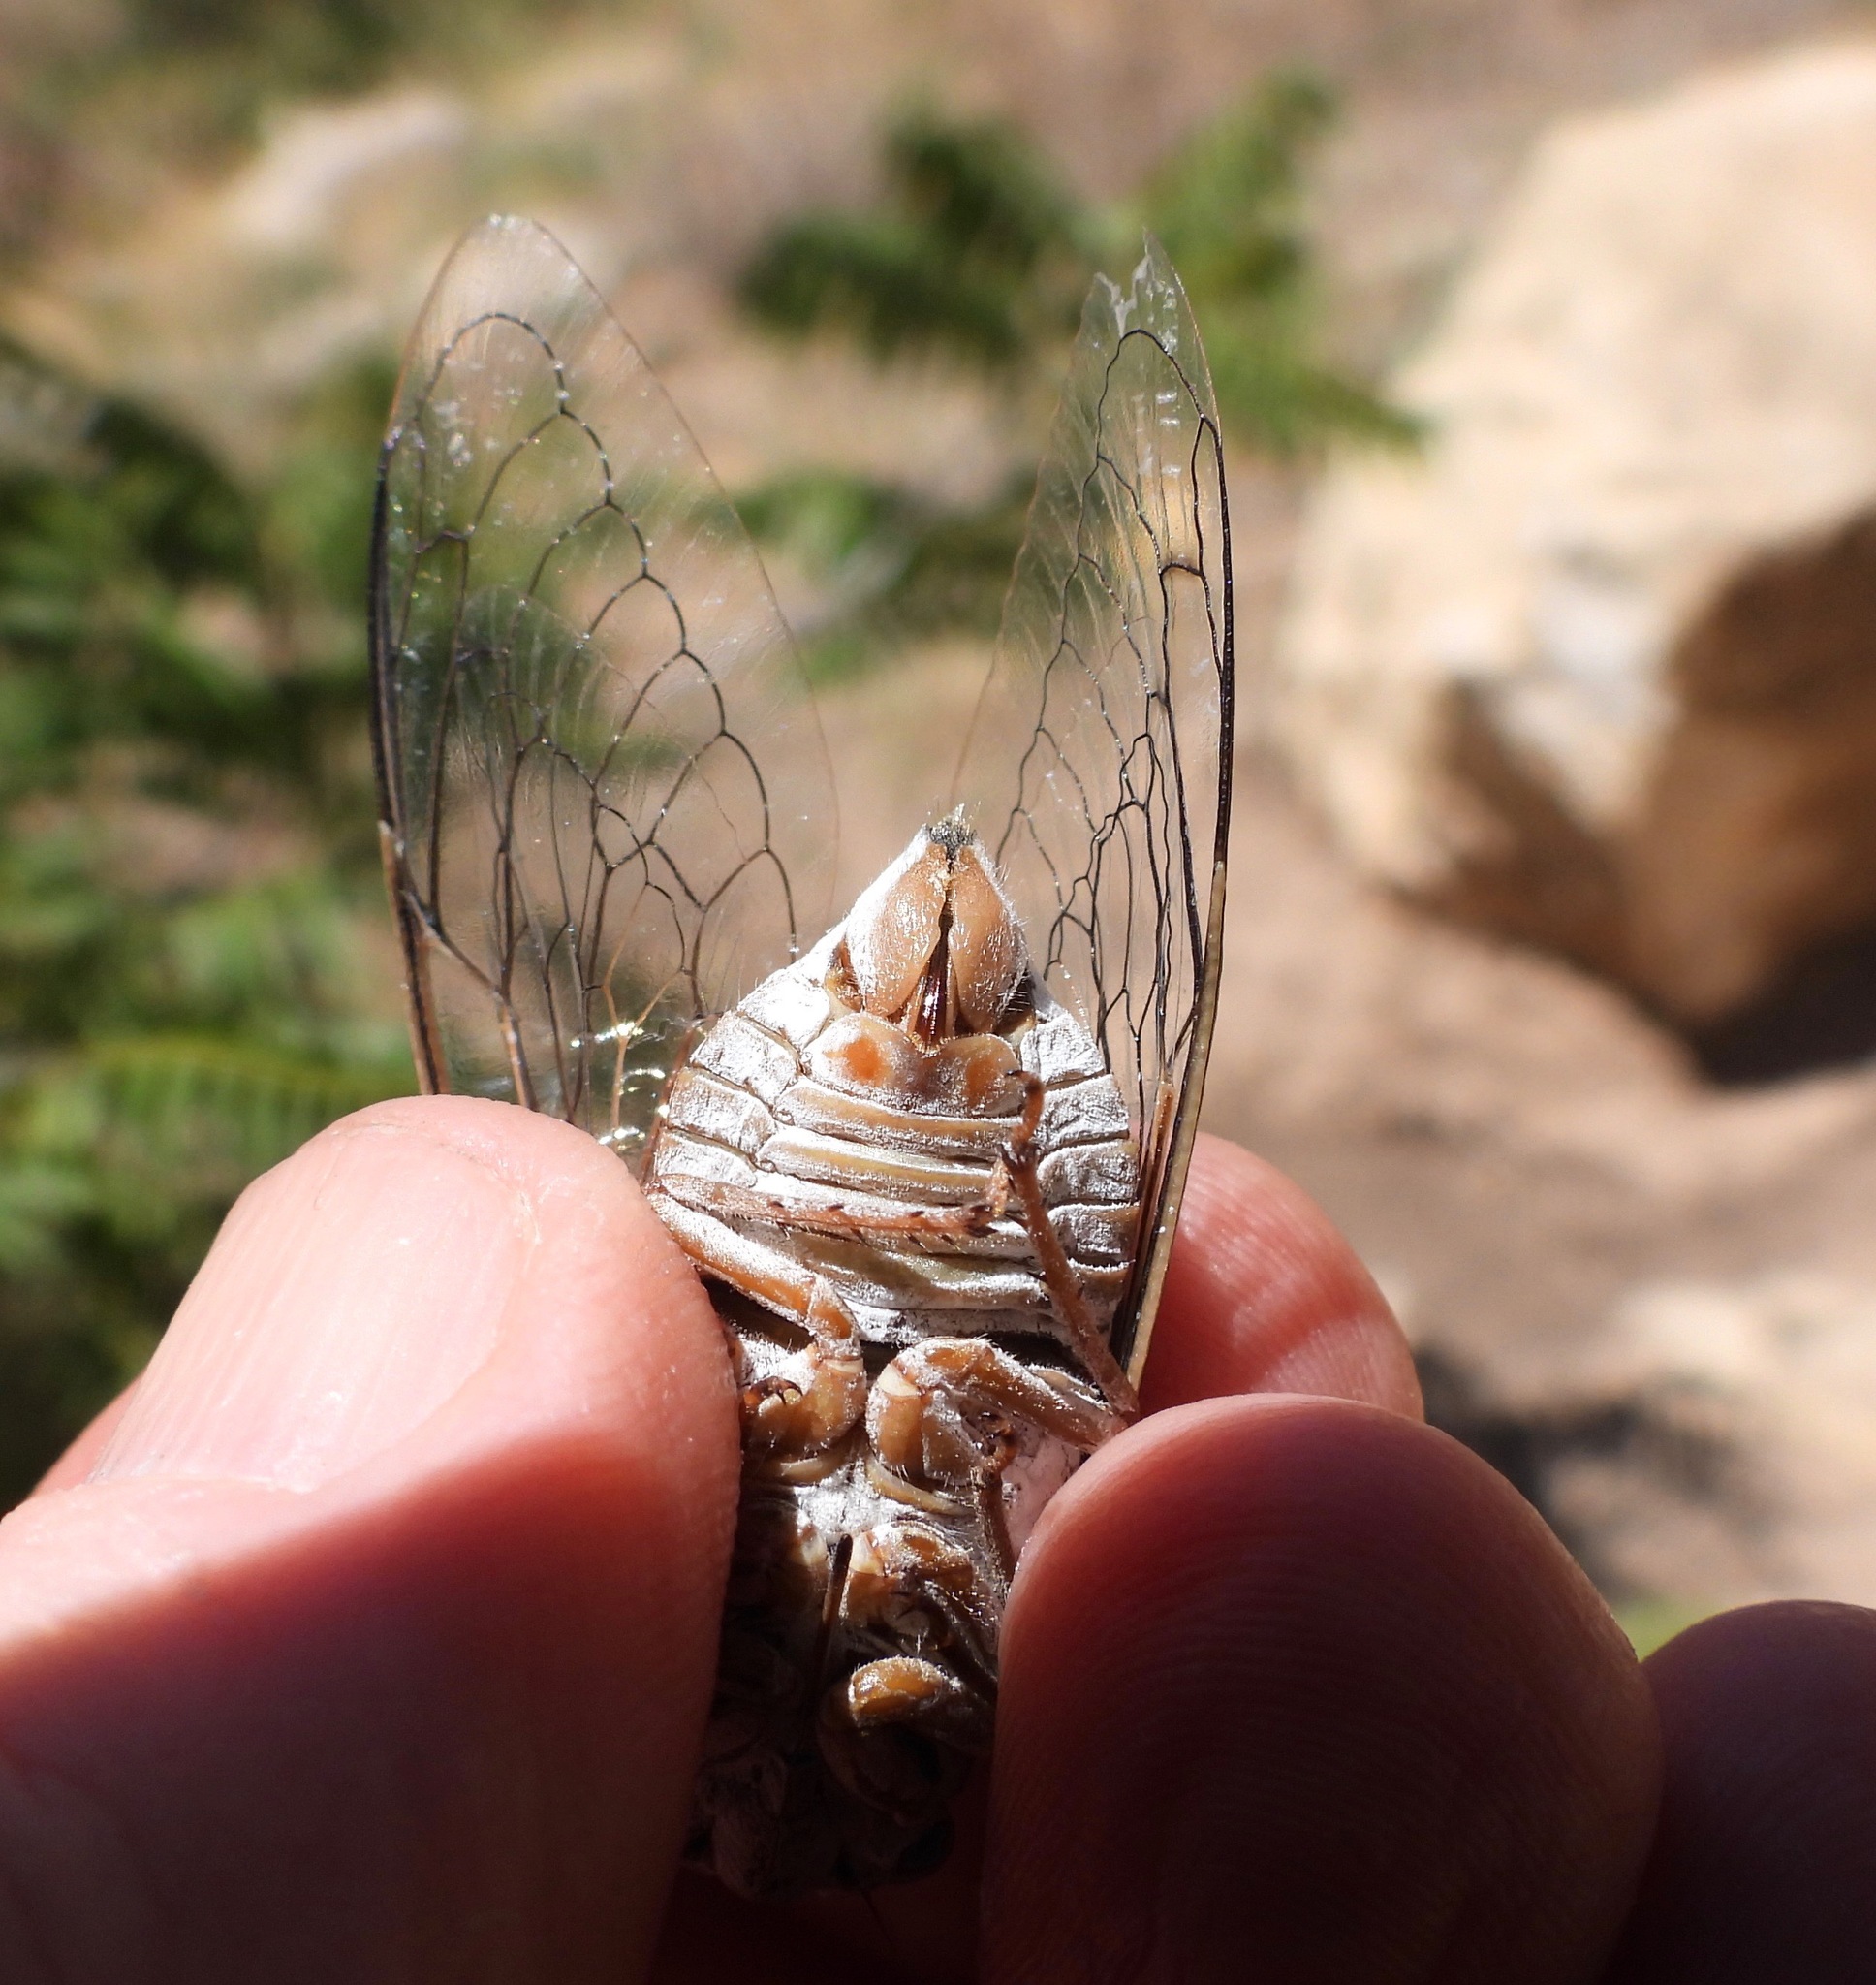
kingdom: Animalia
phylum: Arthropoda
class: Insecta
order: Hemiptera
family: Cicadidae
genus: Cacama
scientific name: Cacama valvata
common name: Cactus dodger
